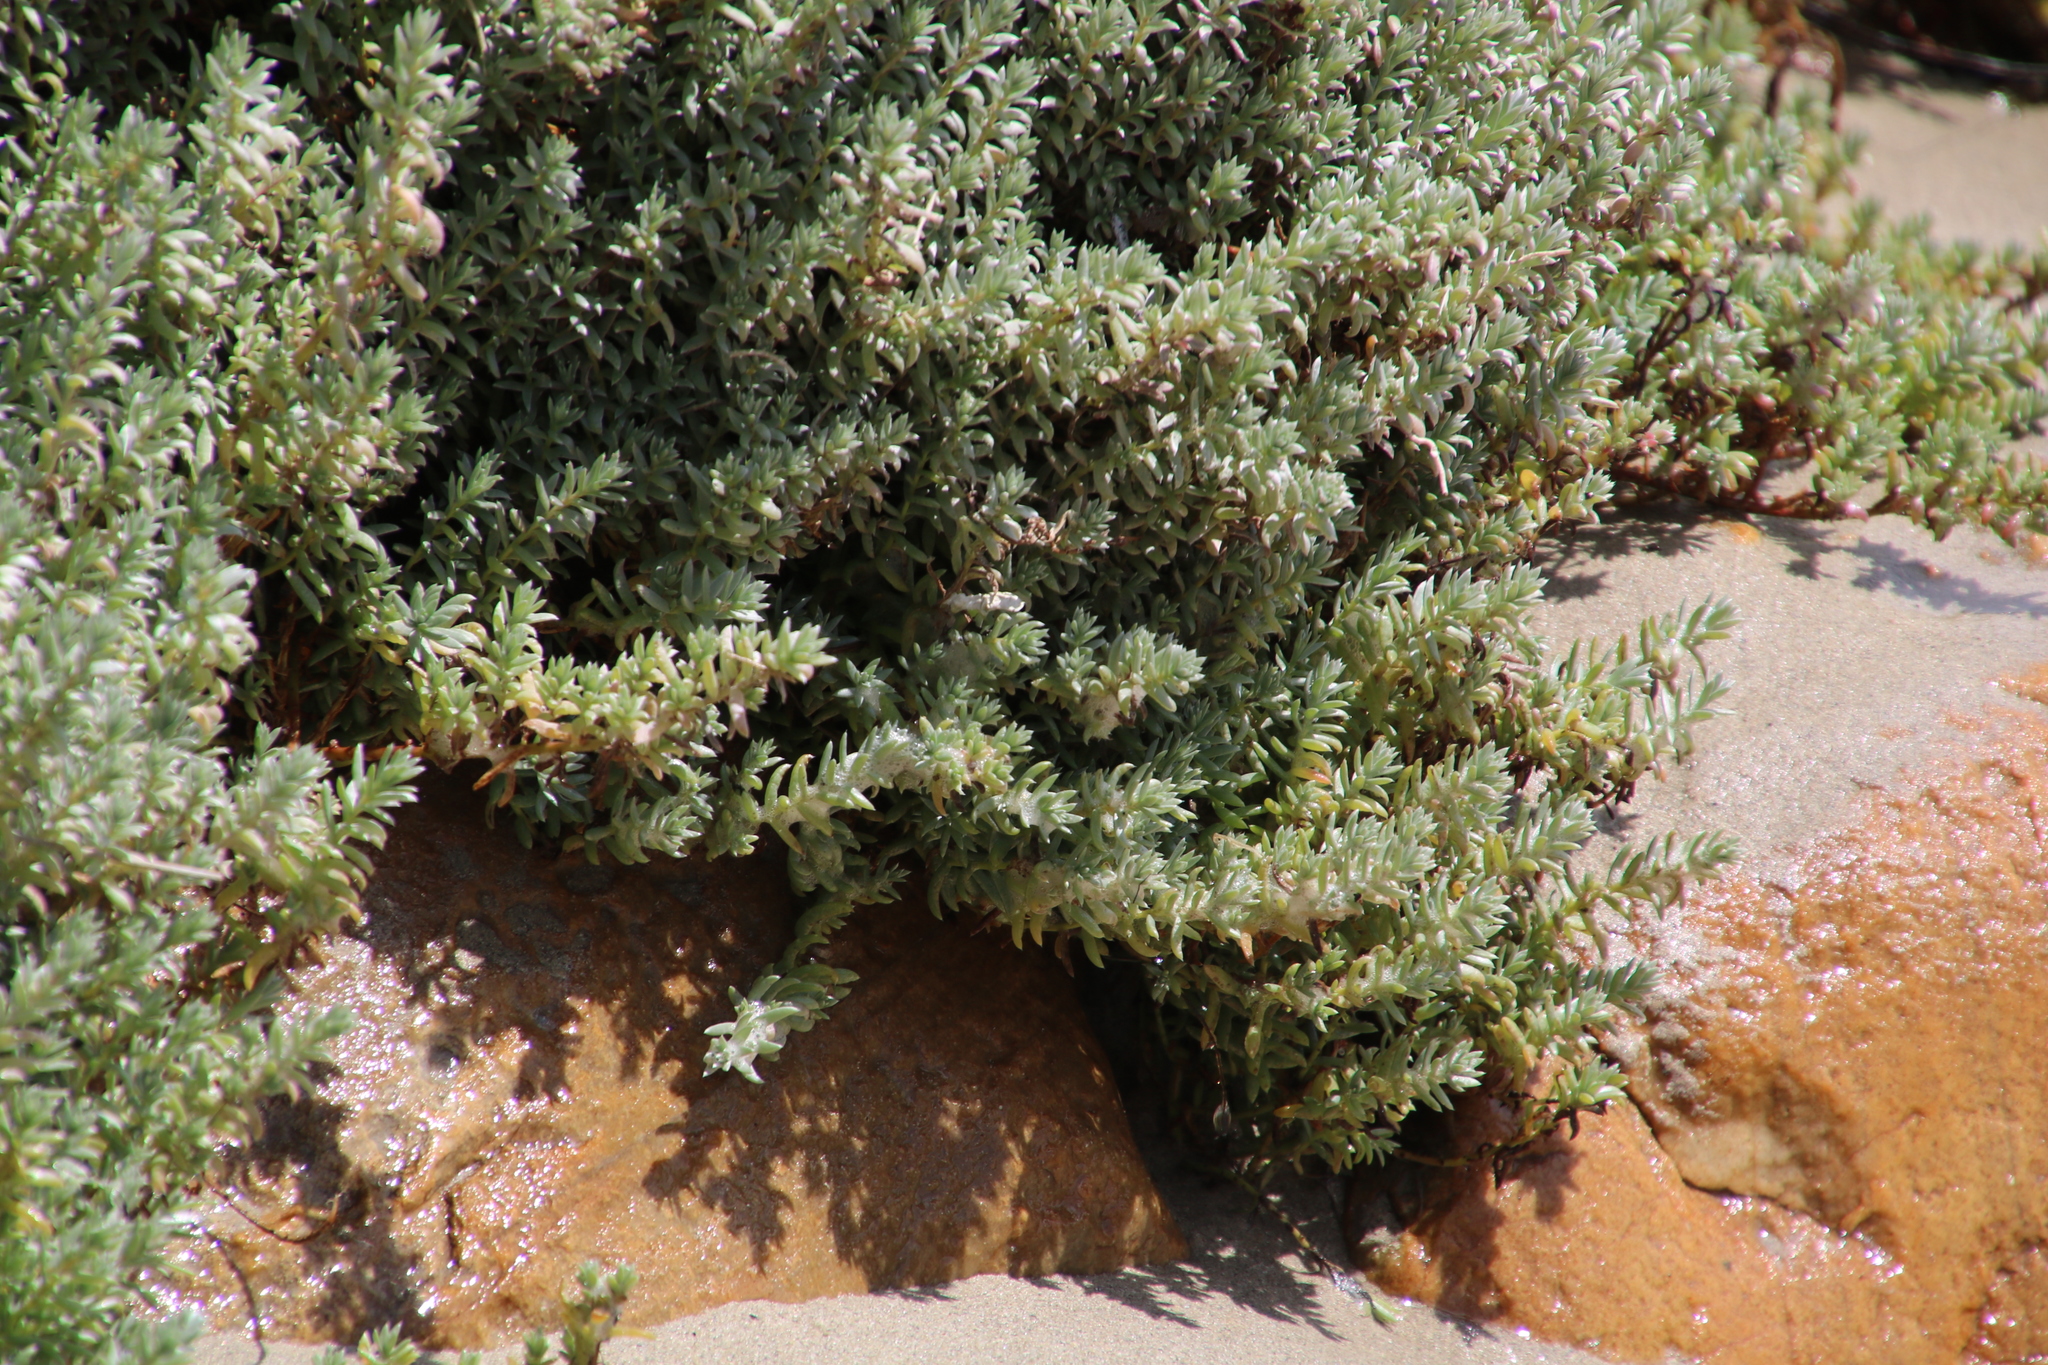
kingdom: Plantae
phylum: Tracheophyta
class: Magnoliopsida
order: Caryophyllales
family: Amaranthaceae
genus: Chenolea
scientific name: Chenolea diffusa
